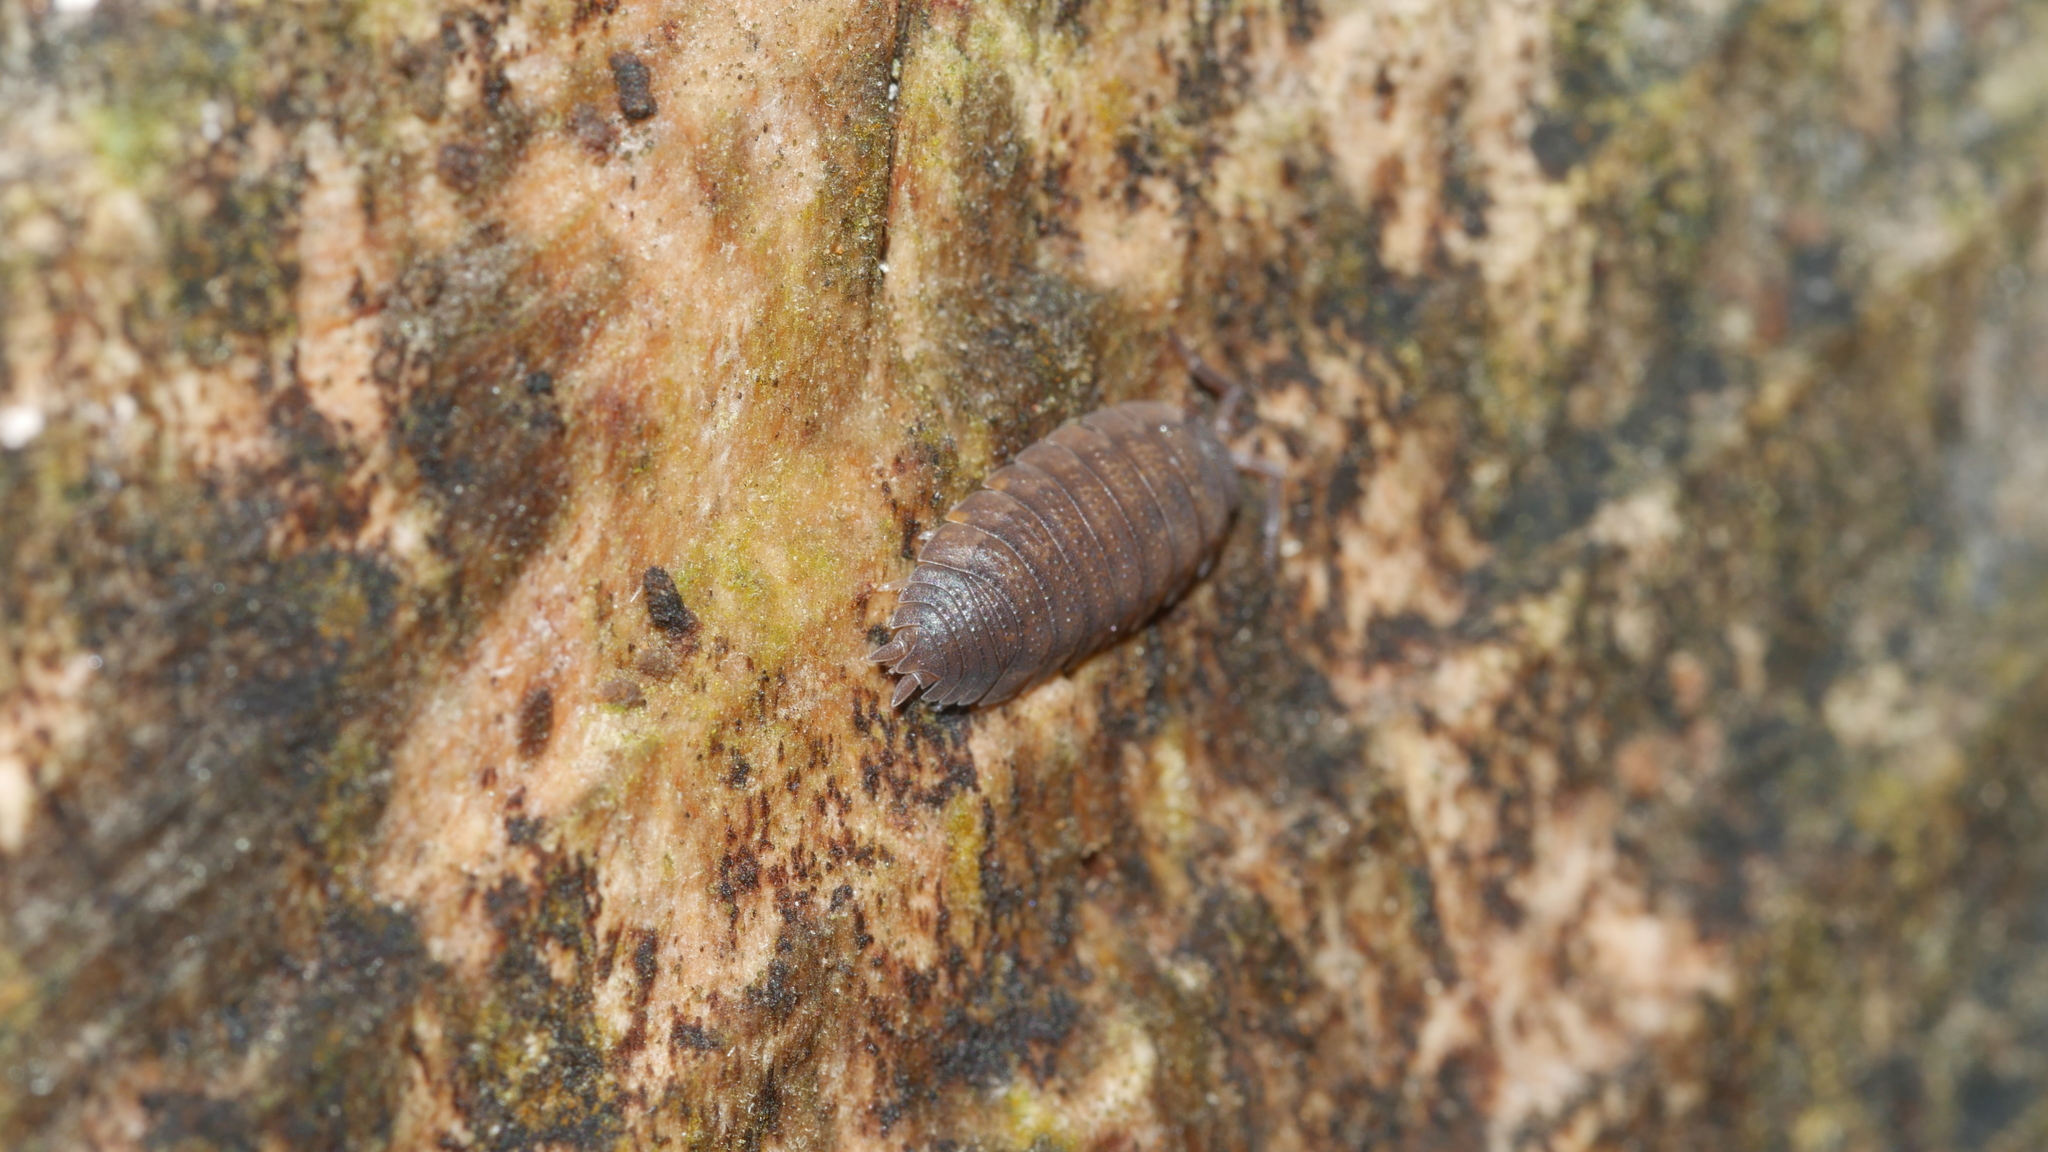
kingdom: Animalia
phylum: Arthropoda
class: Malacostraca
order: Isopoda
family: Porcellionidae
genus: Porcellio
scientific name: Porcellio scaber
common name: Common rough woodlouse
